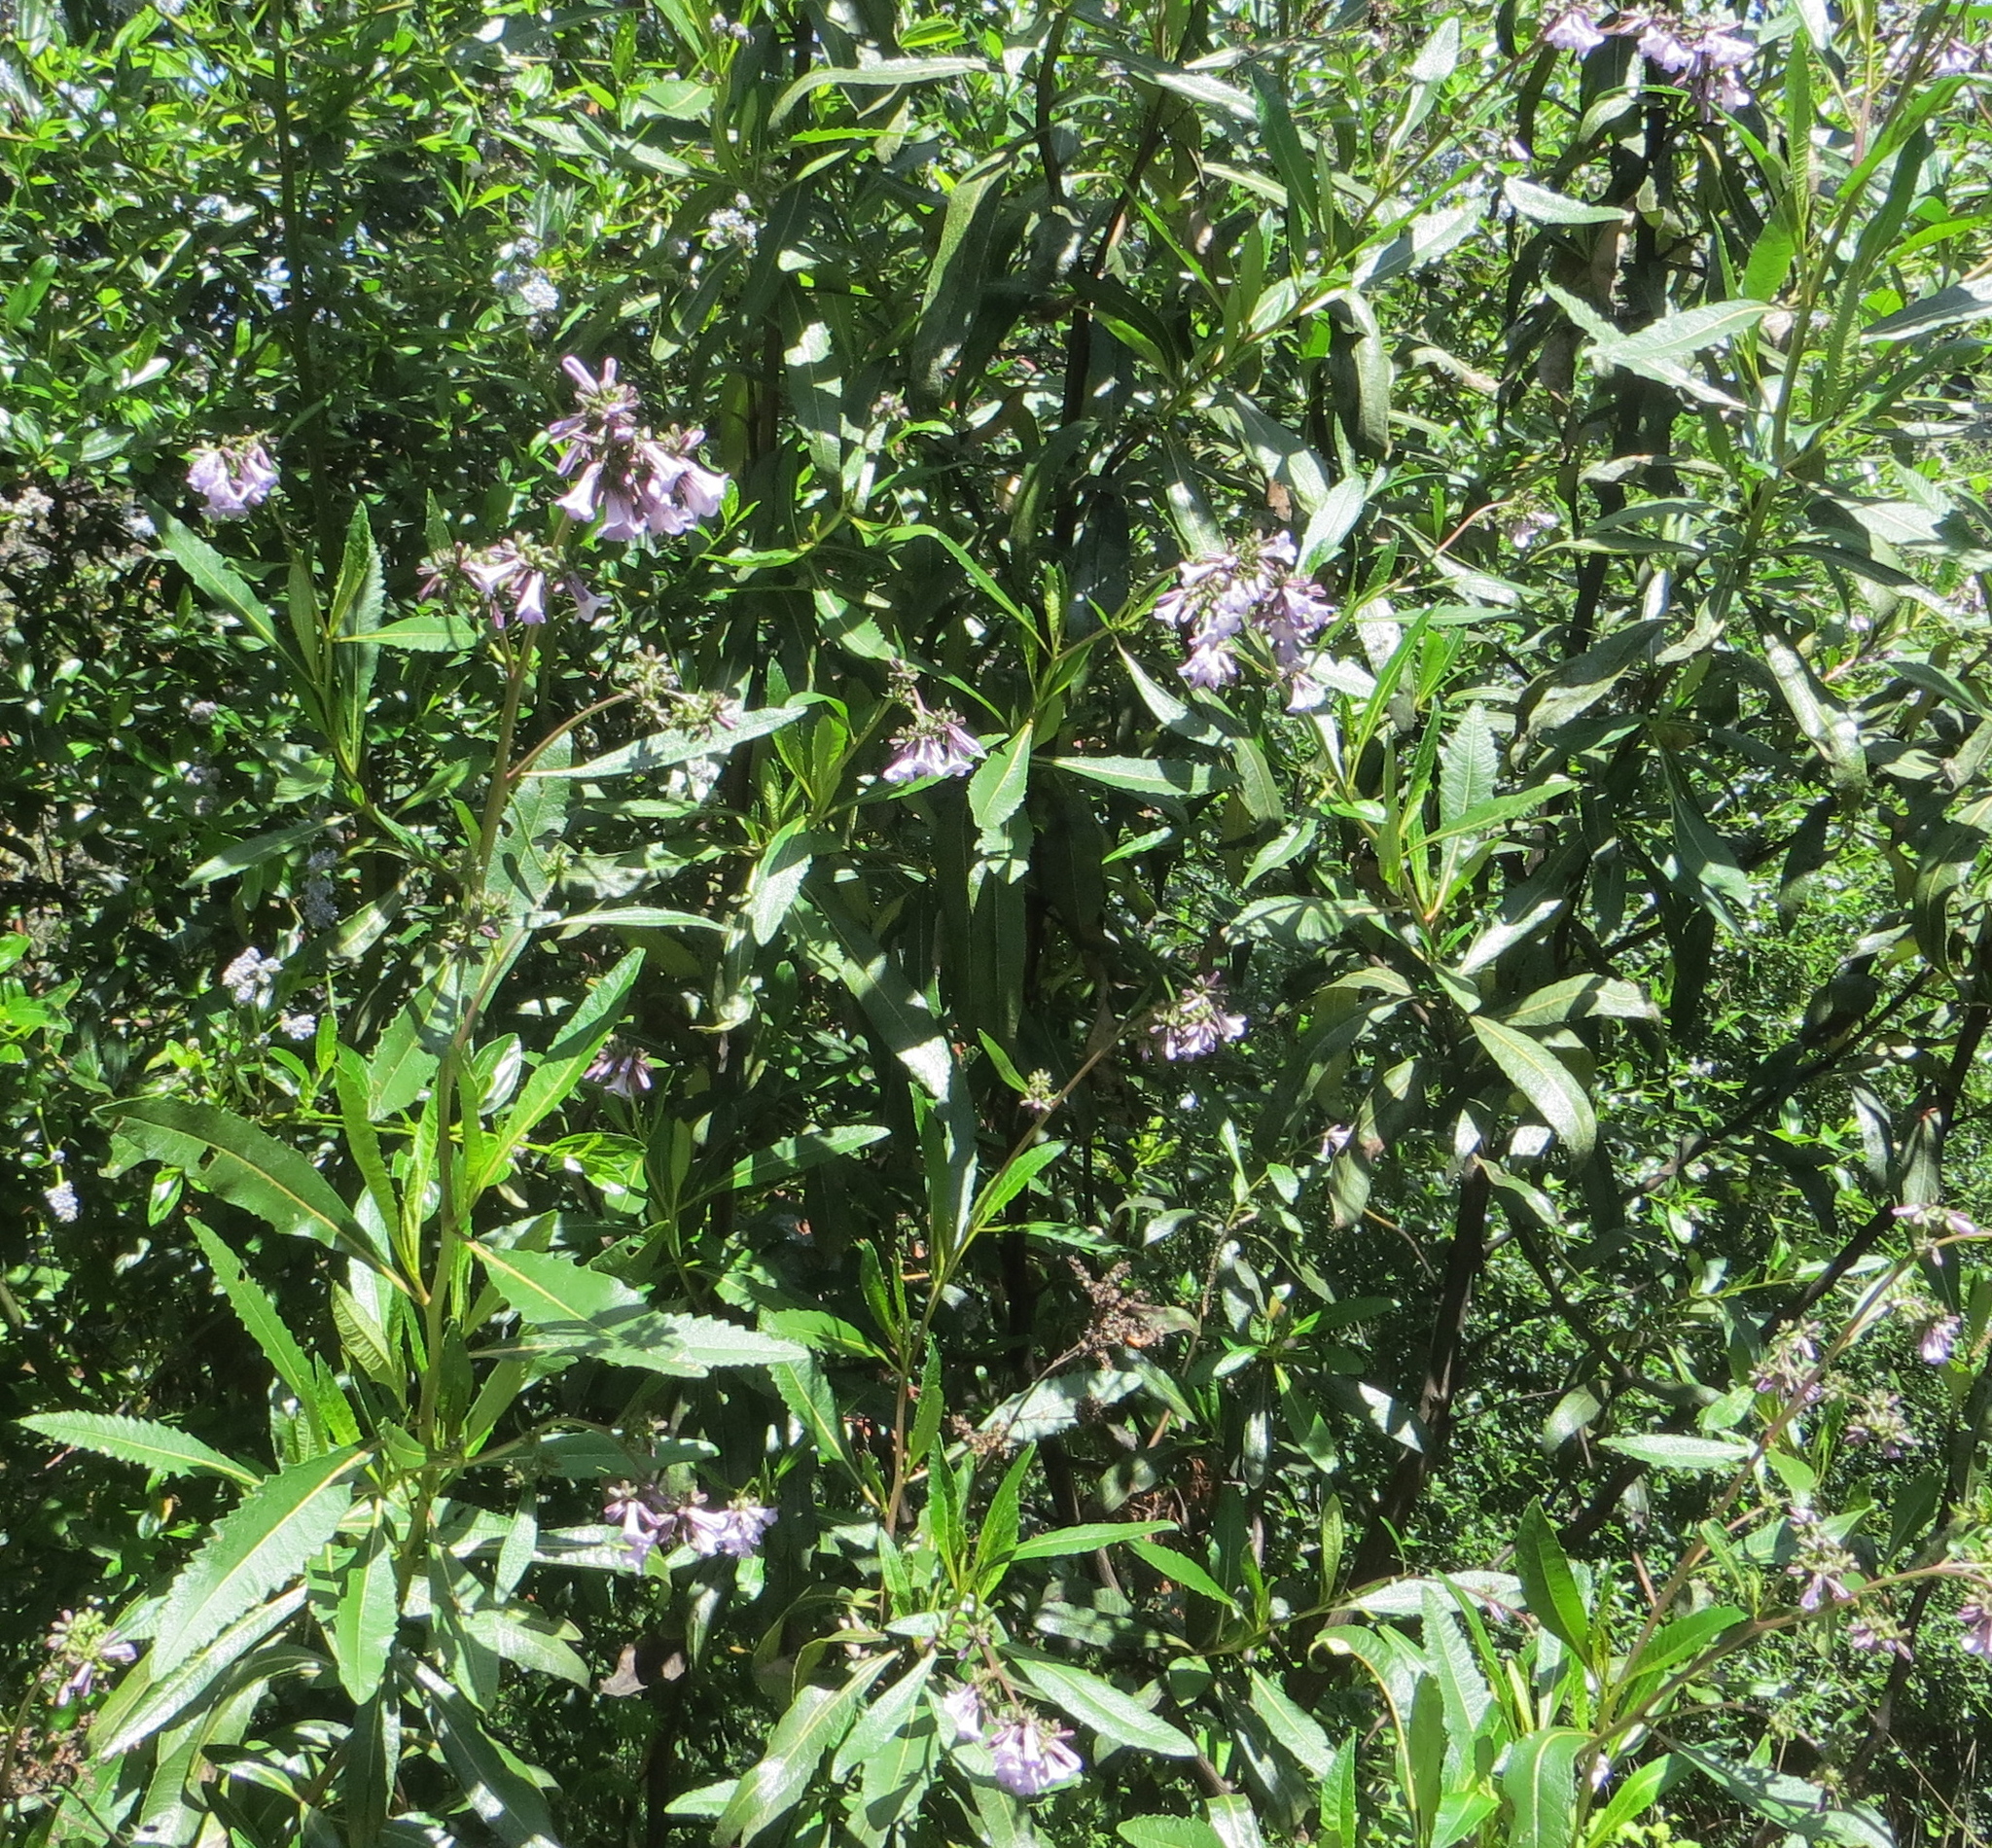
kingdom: Plantae
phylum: Tracheophyta
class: Magnoliopsida
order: Boraginales
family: Namaceae
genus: Eriodictyon
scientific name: Eriodictyon californicum
